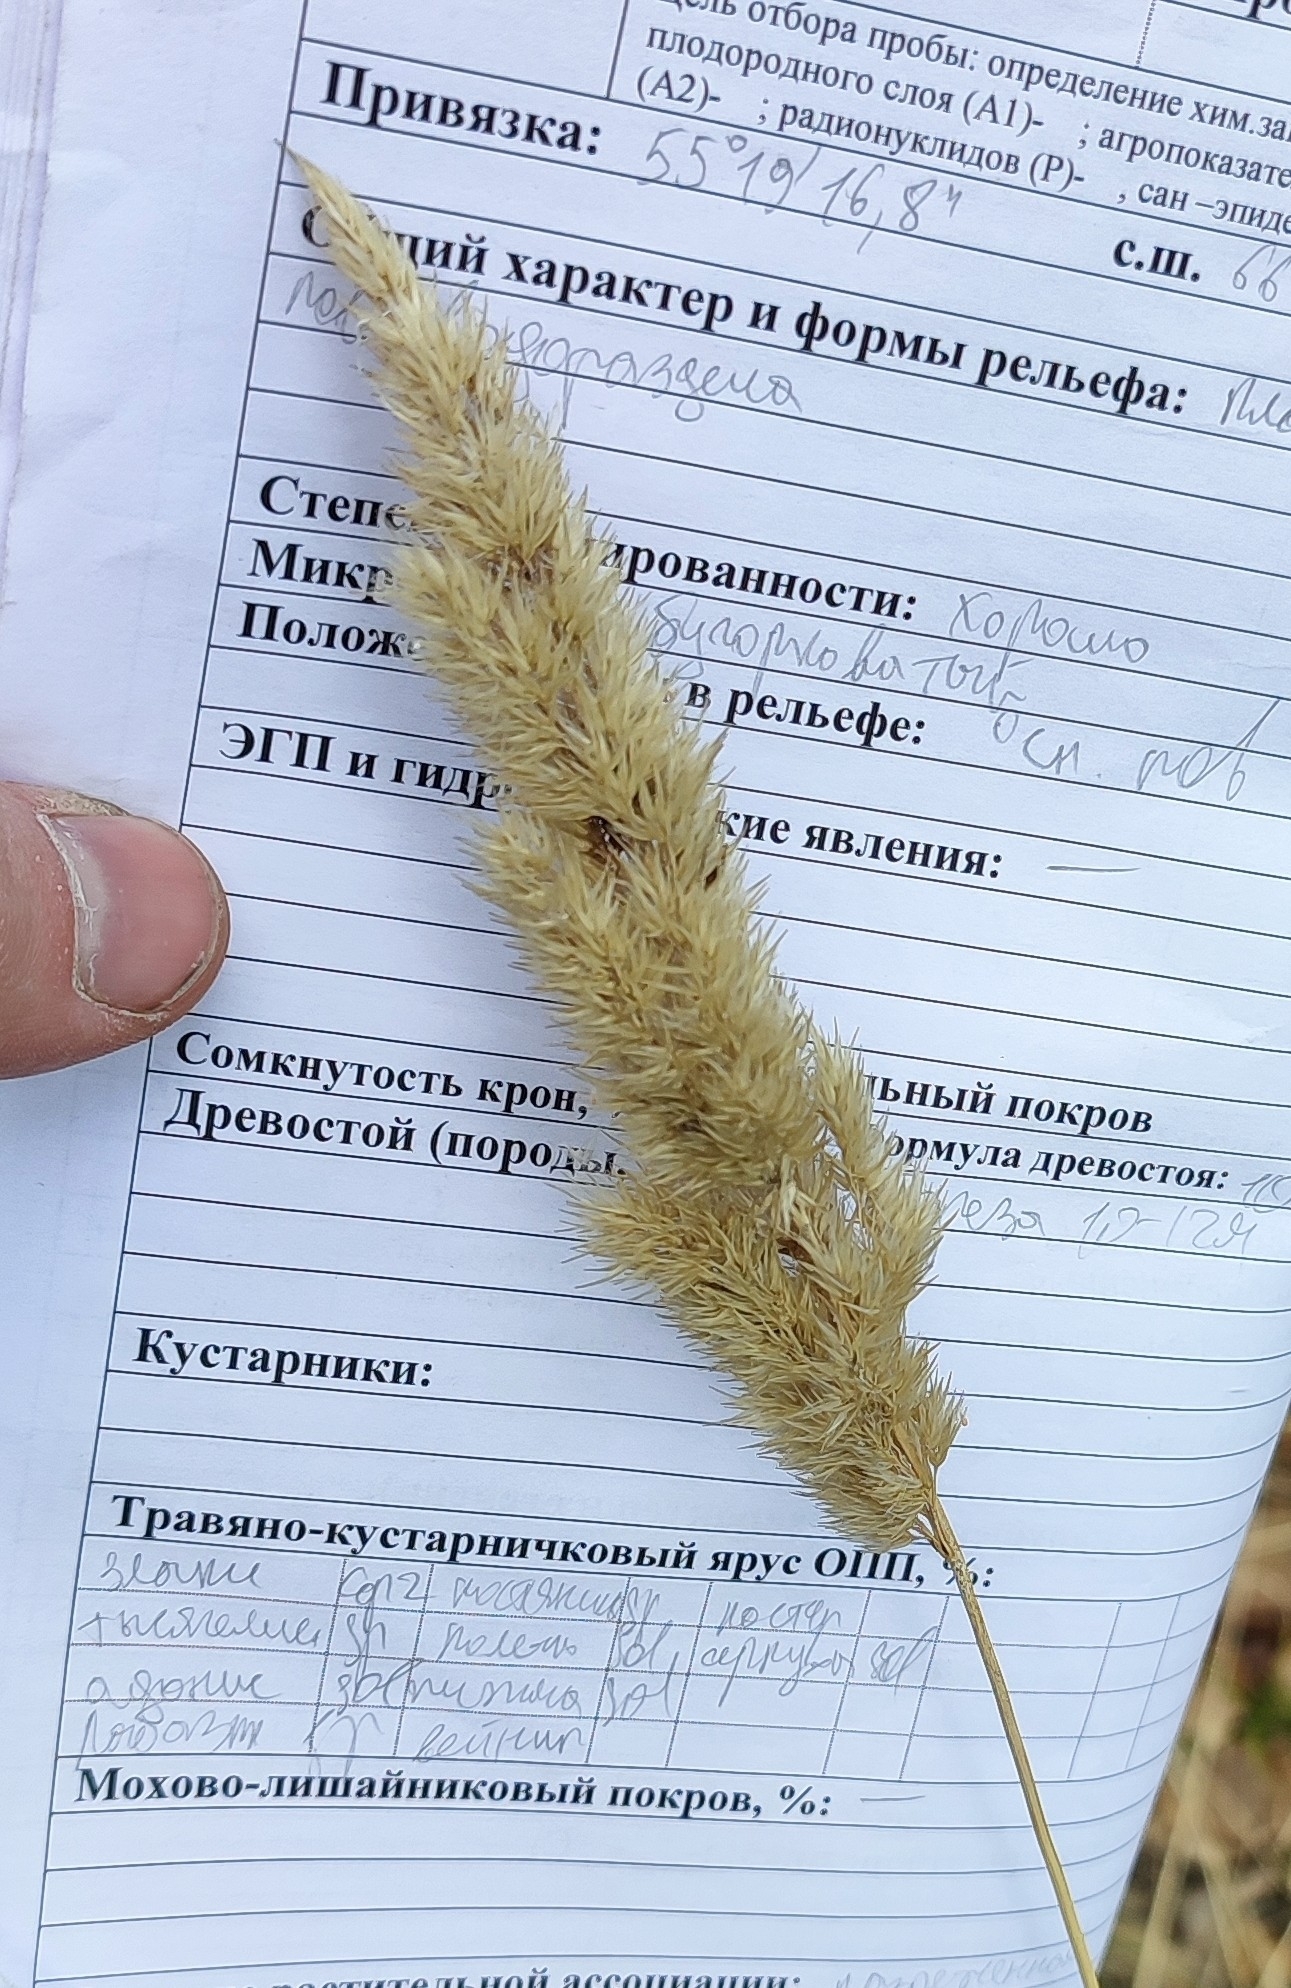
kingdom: Plantae
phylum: Tracheophyta
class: Liliopsida
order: Poales
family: Poaceae
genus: Calamagrostis
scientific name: Calamagrostis epigejos
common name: Wood small-reed
